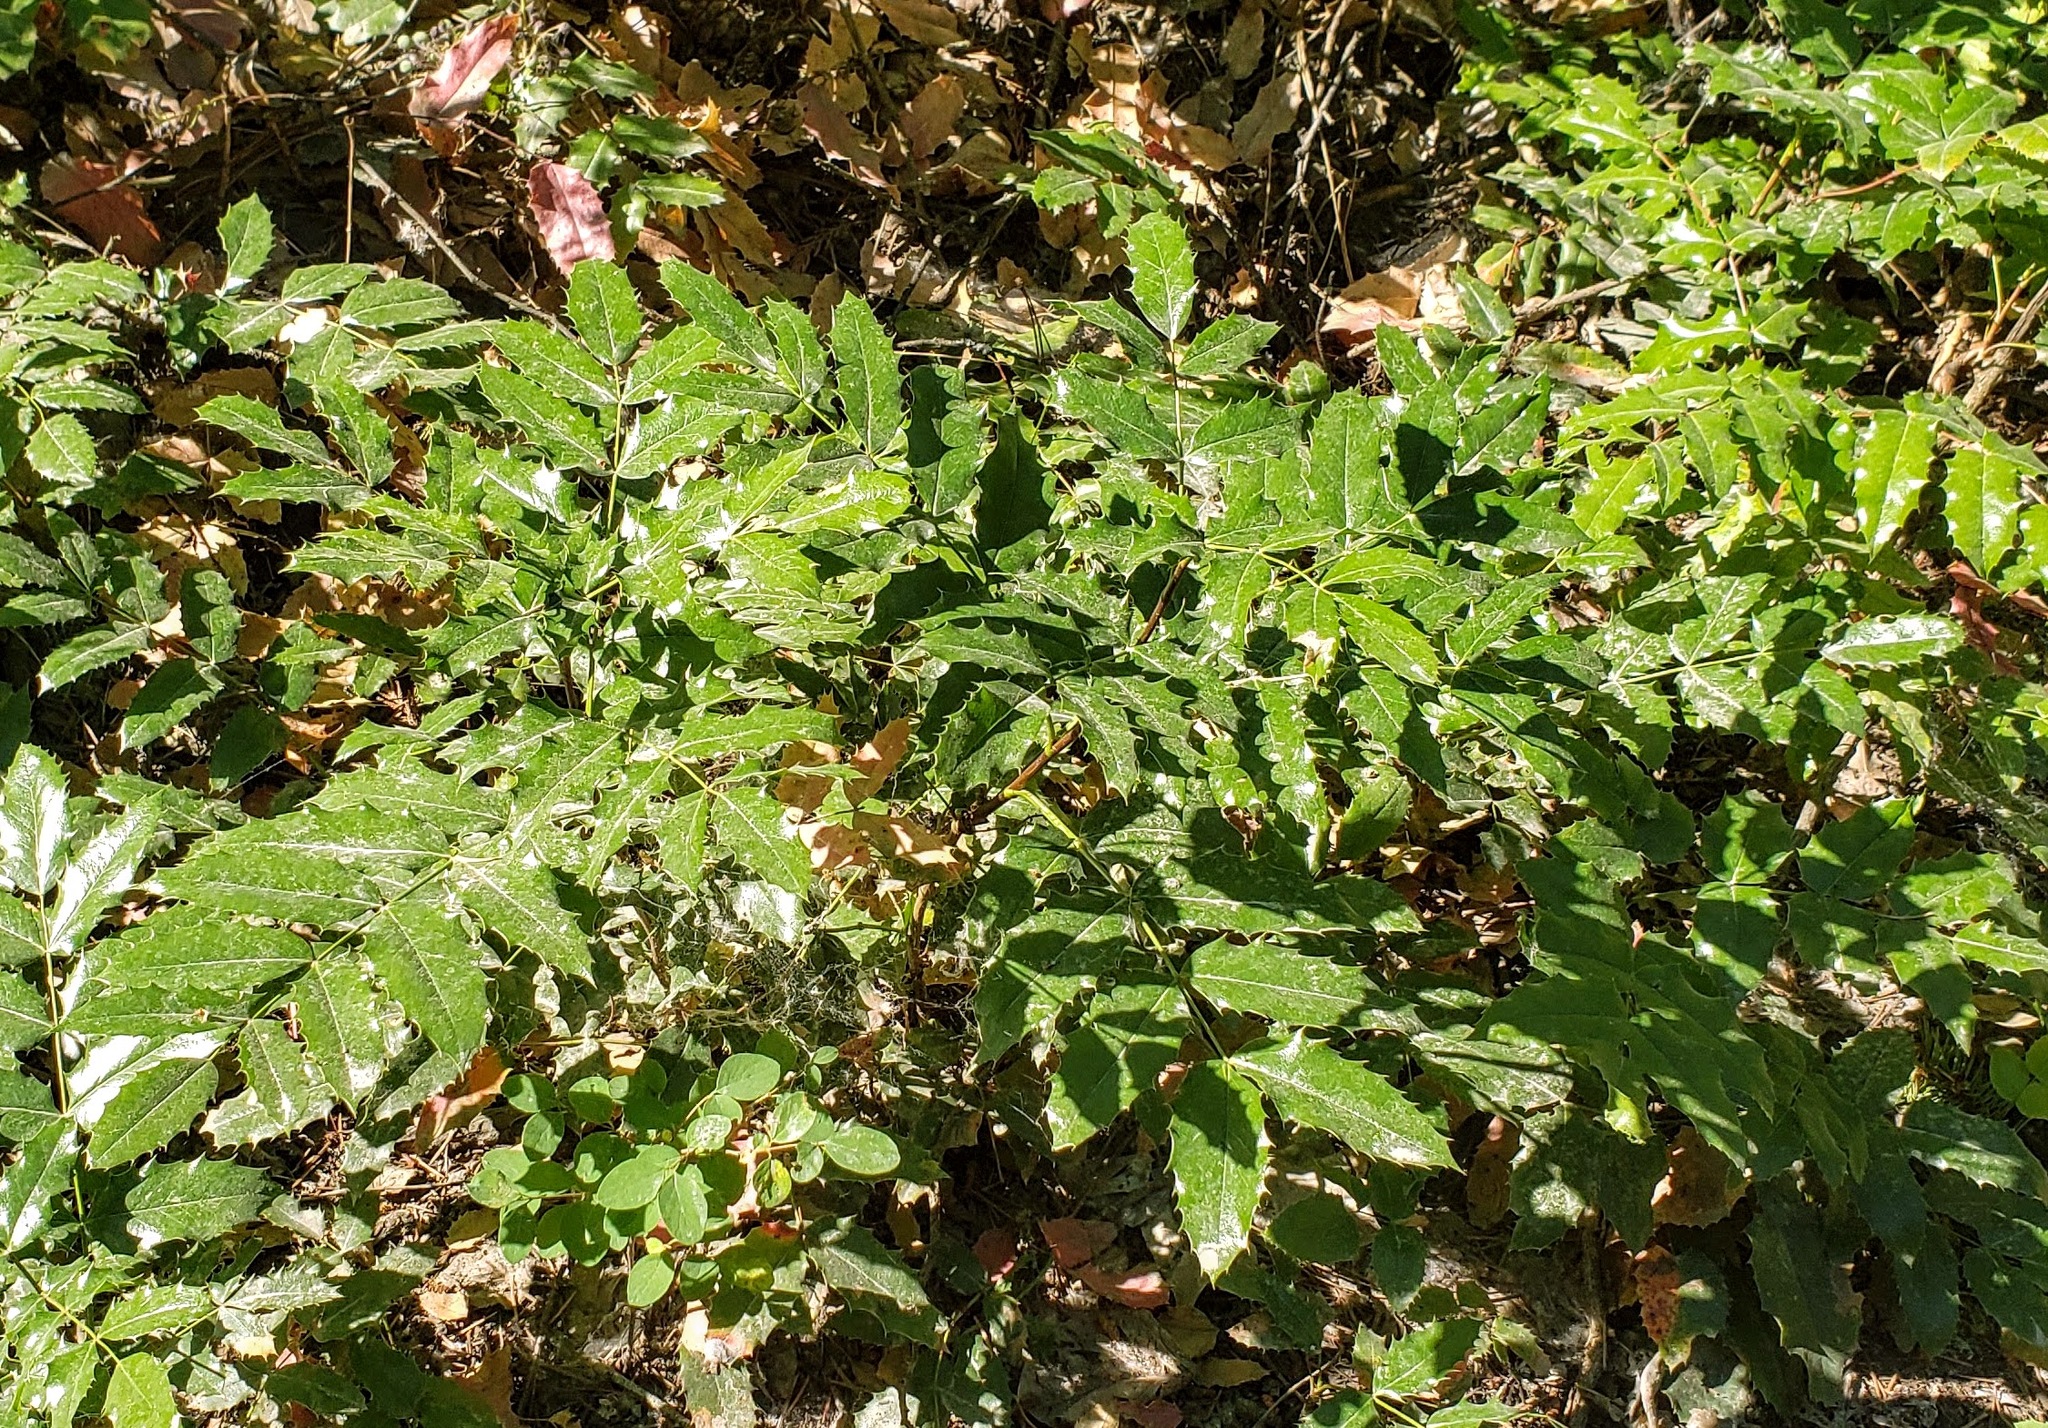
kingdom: Plantae
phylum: Tracheophyta
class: Magnoliopsida
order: Ranunculales
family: Berberidaceae
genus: Mahonia
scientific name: Mahonia aquifolium
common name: Oregon-grape
